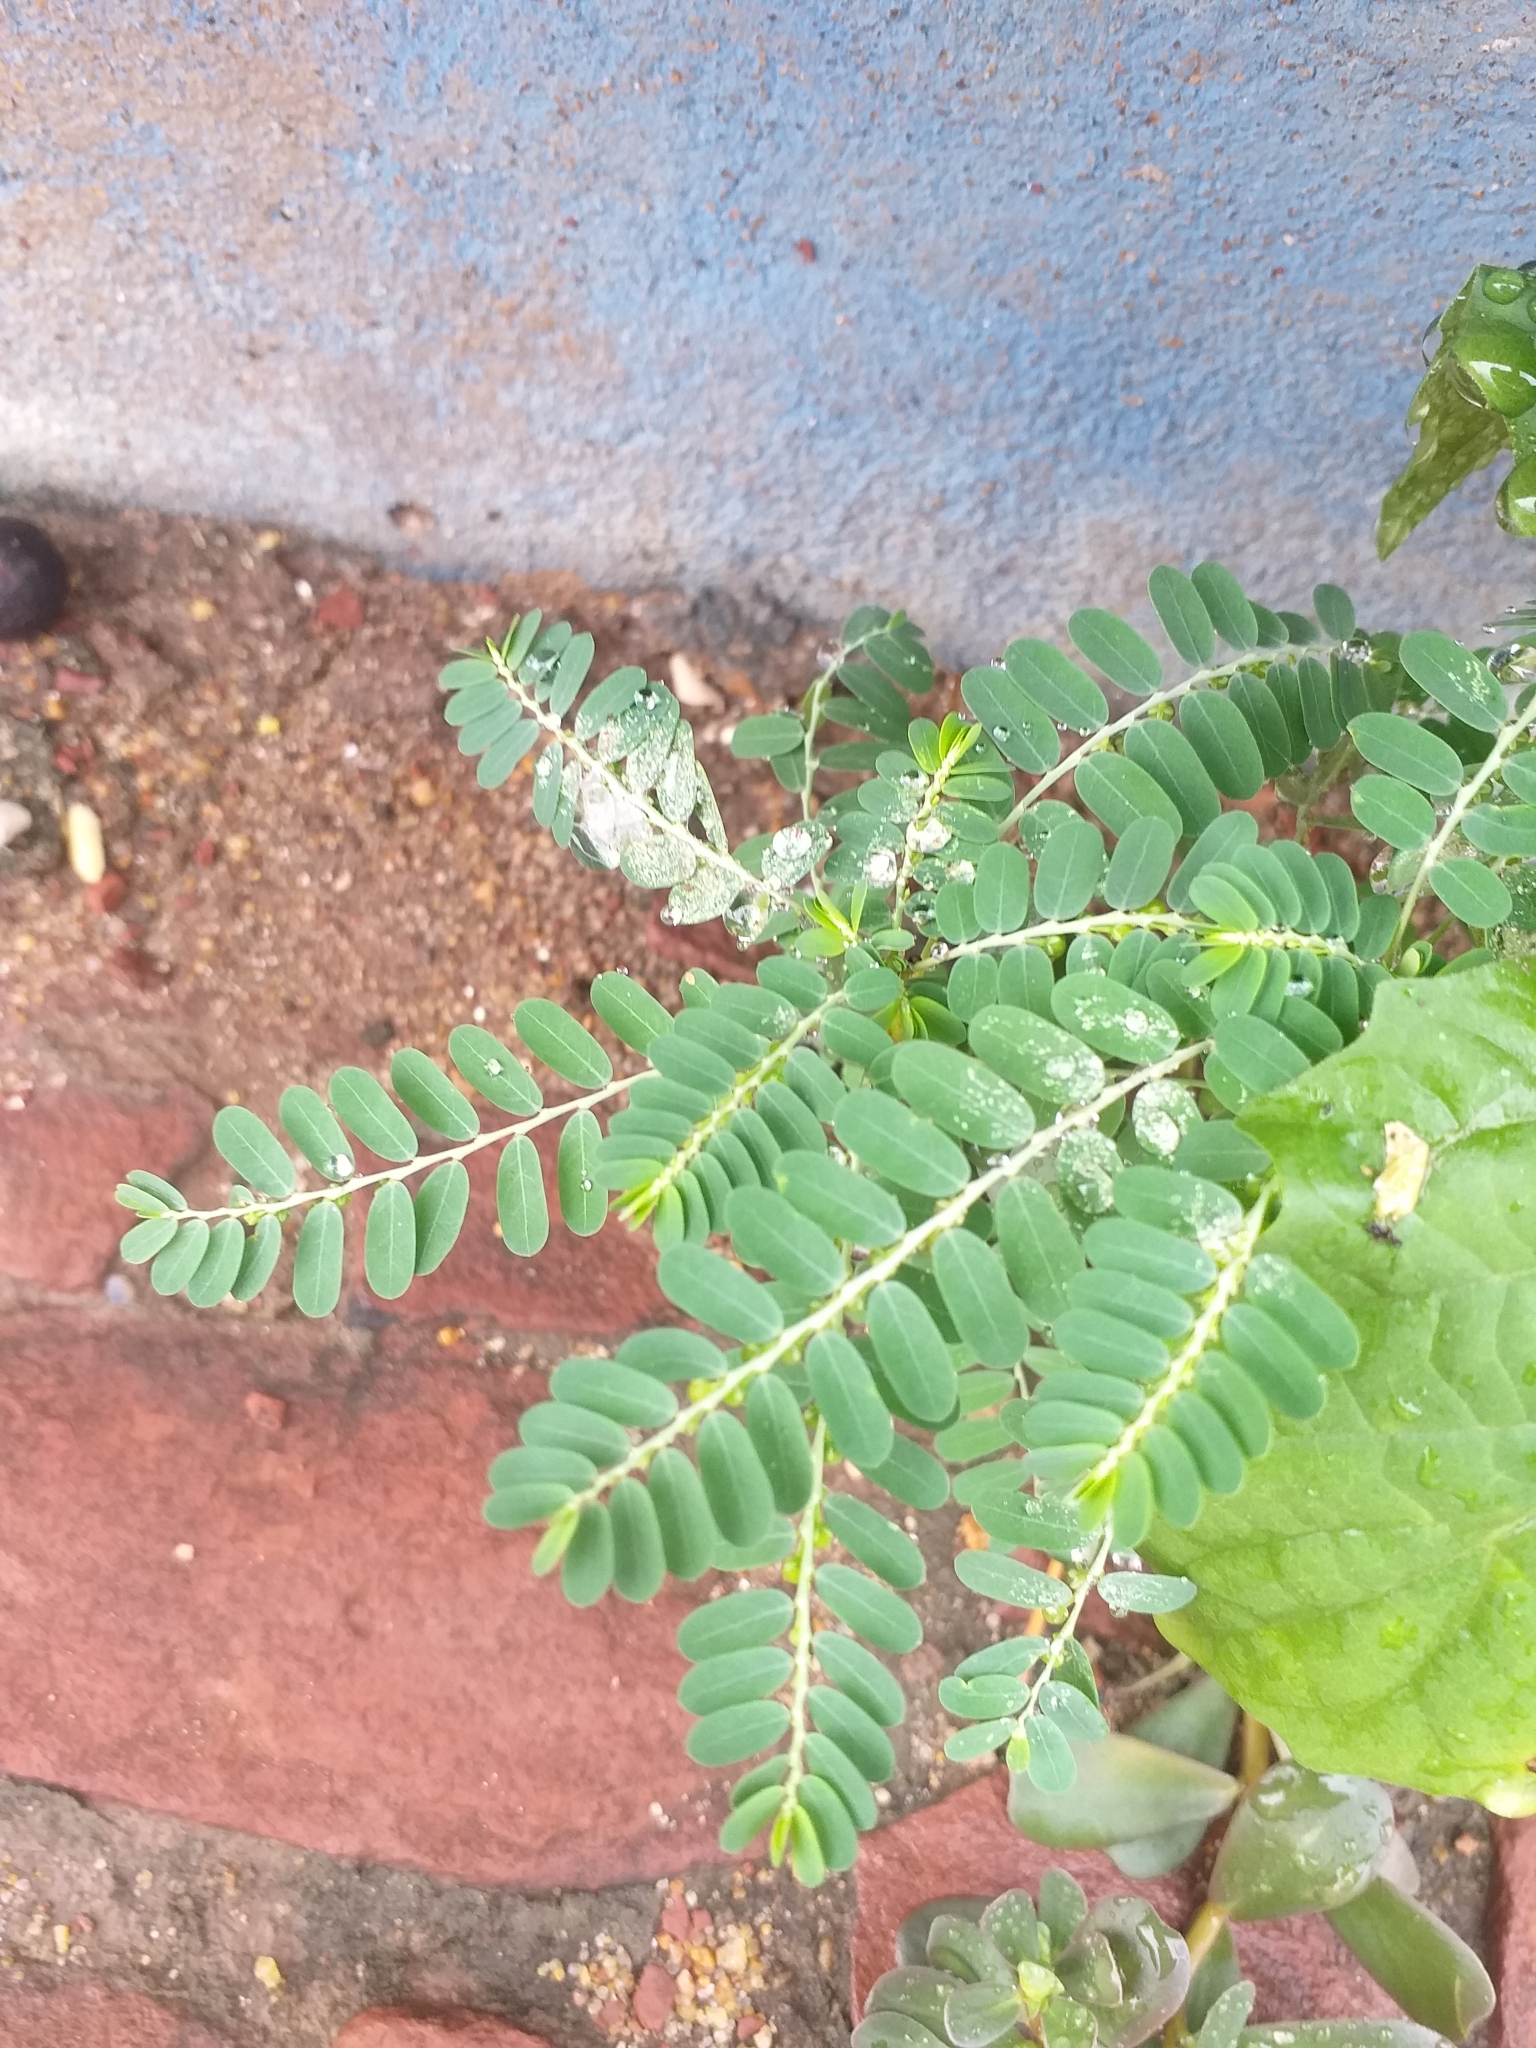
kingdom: Plantae
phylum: Tracheophyta
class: Magnoliopsida
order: Malpighiales
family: Phyllanthaceae
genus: Phyllanthus
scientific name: Phyllanthus amarus
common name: Carry me seed
